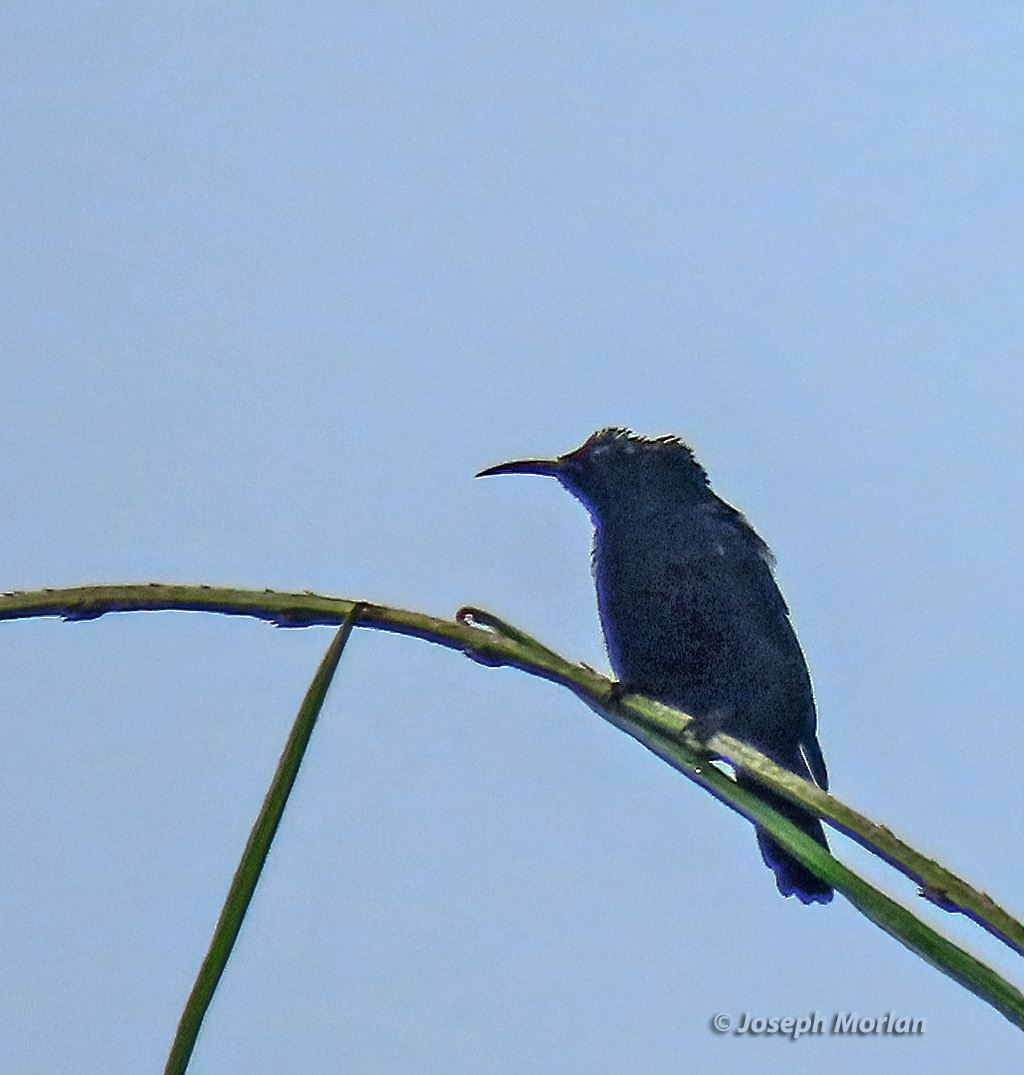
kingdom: Animalia
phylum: Chordata
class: Aves
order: Passeriformes
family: Nectariniidae
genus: Leptocoma
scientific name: Leptocoma sericea
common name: Black sunbird
